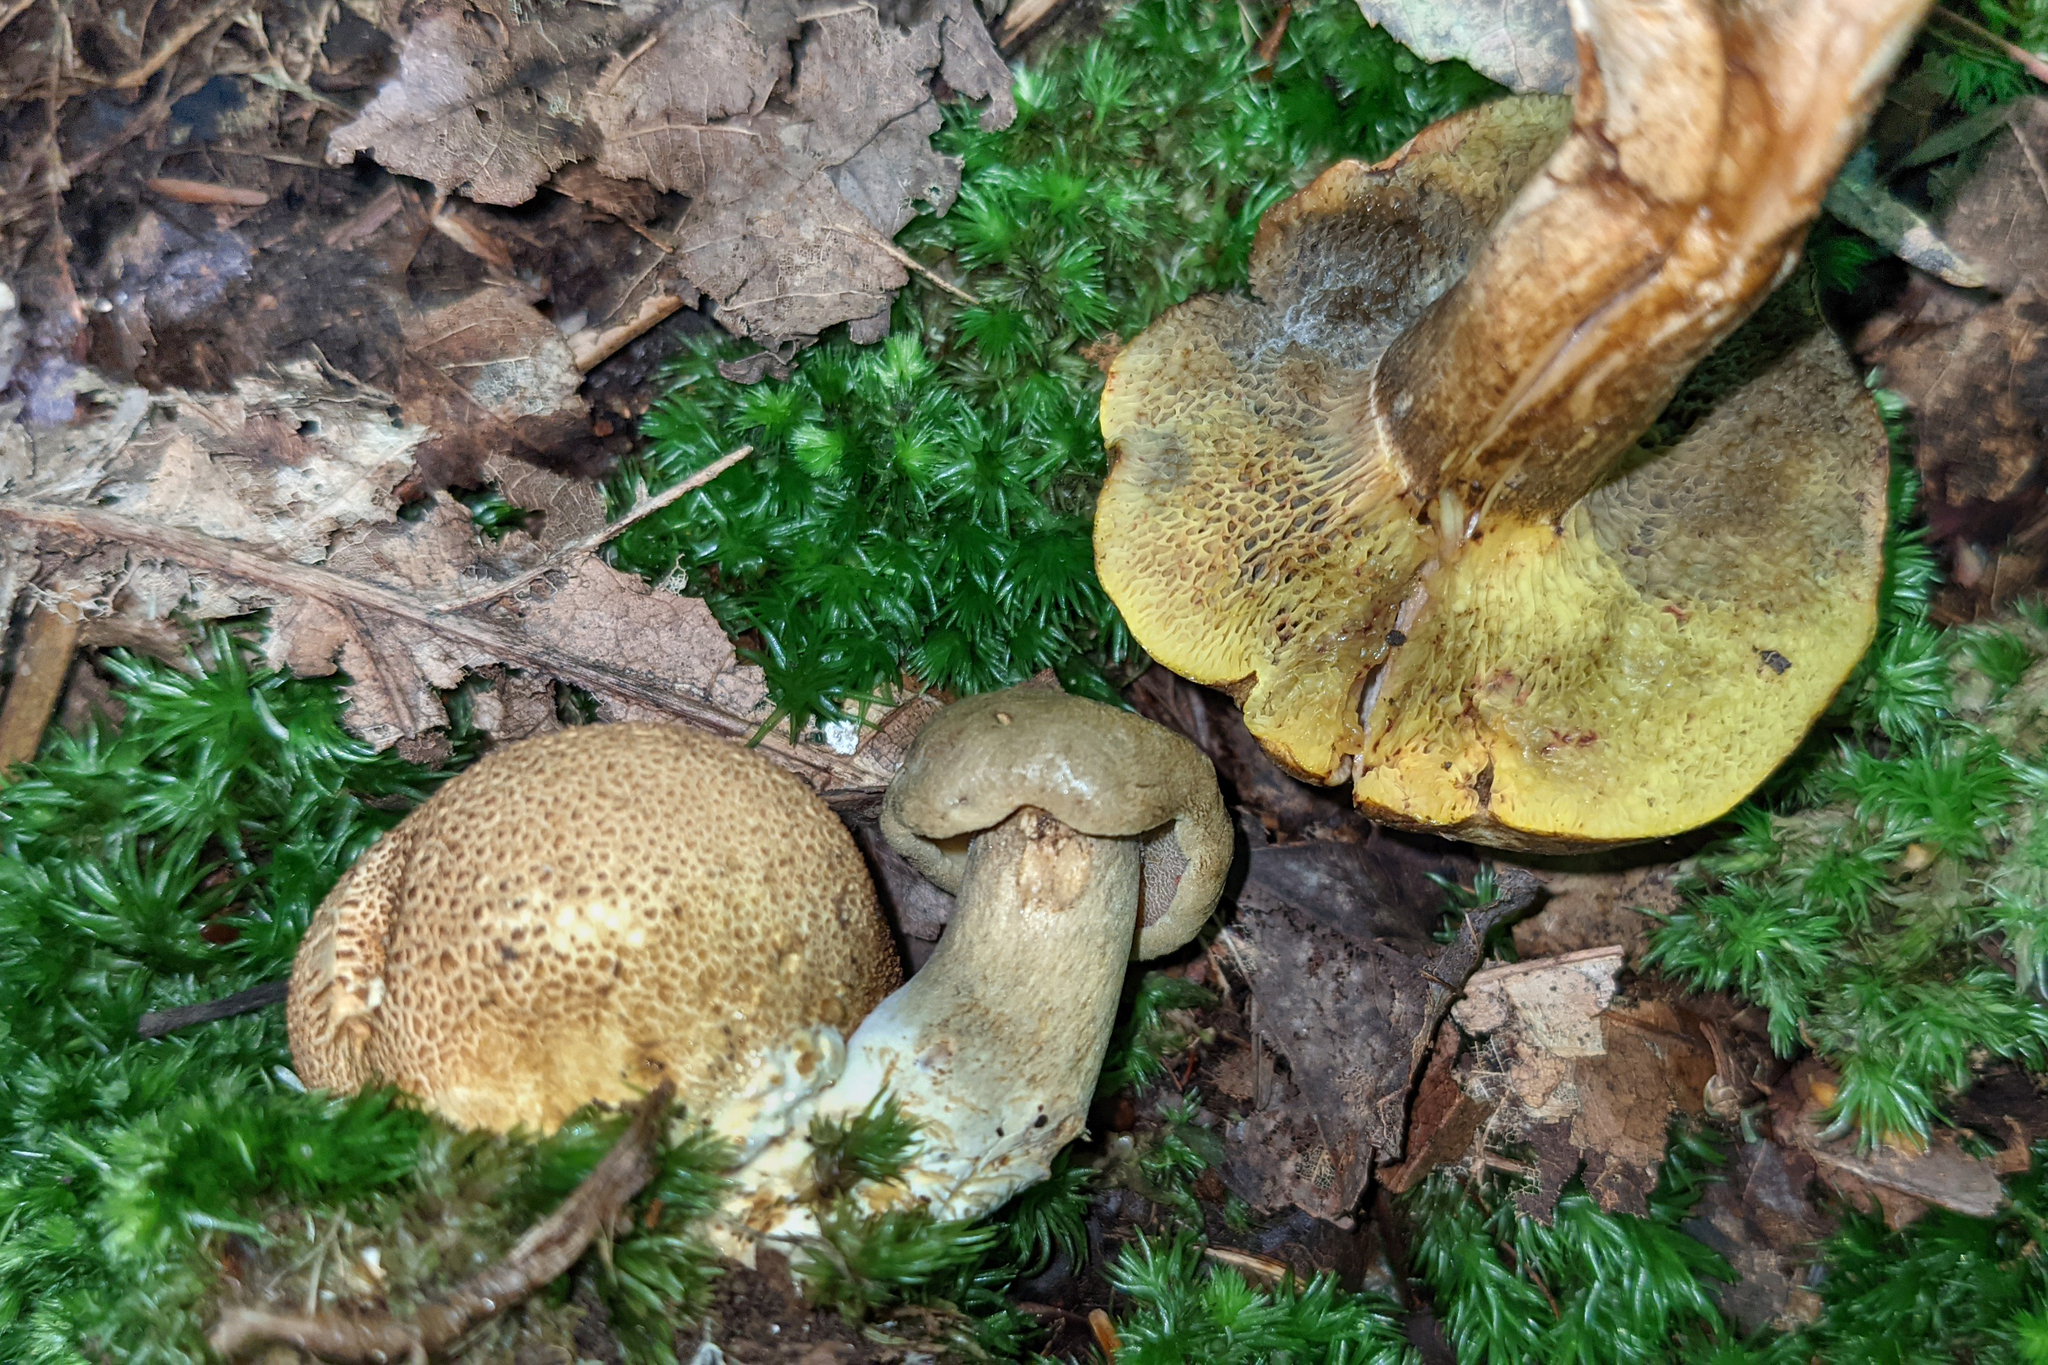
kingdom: Fungi
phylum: Basidiomycota
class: Agaricomycetes
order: Boletales
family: Boletaceae
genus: Pseudoboletus
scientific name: Pseudoboletus parasiticus
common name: Parasitic bolete
